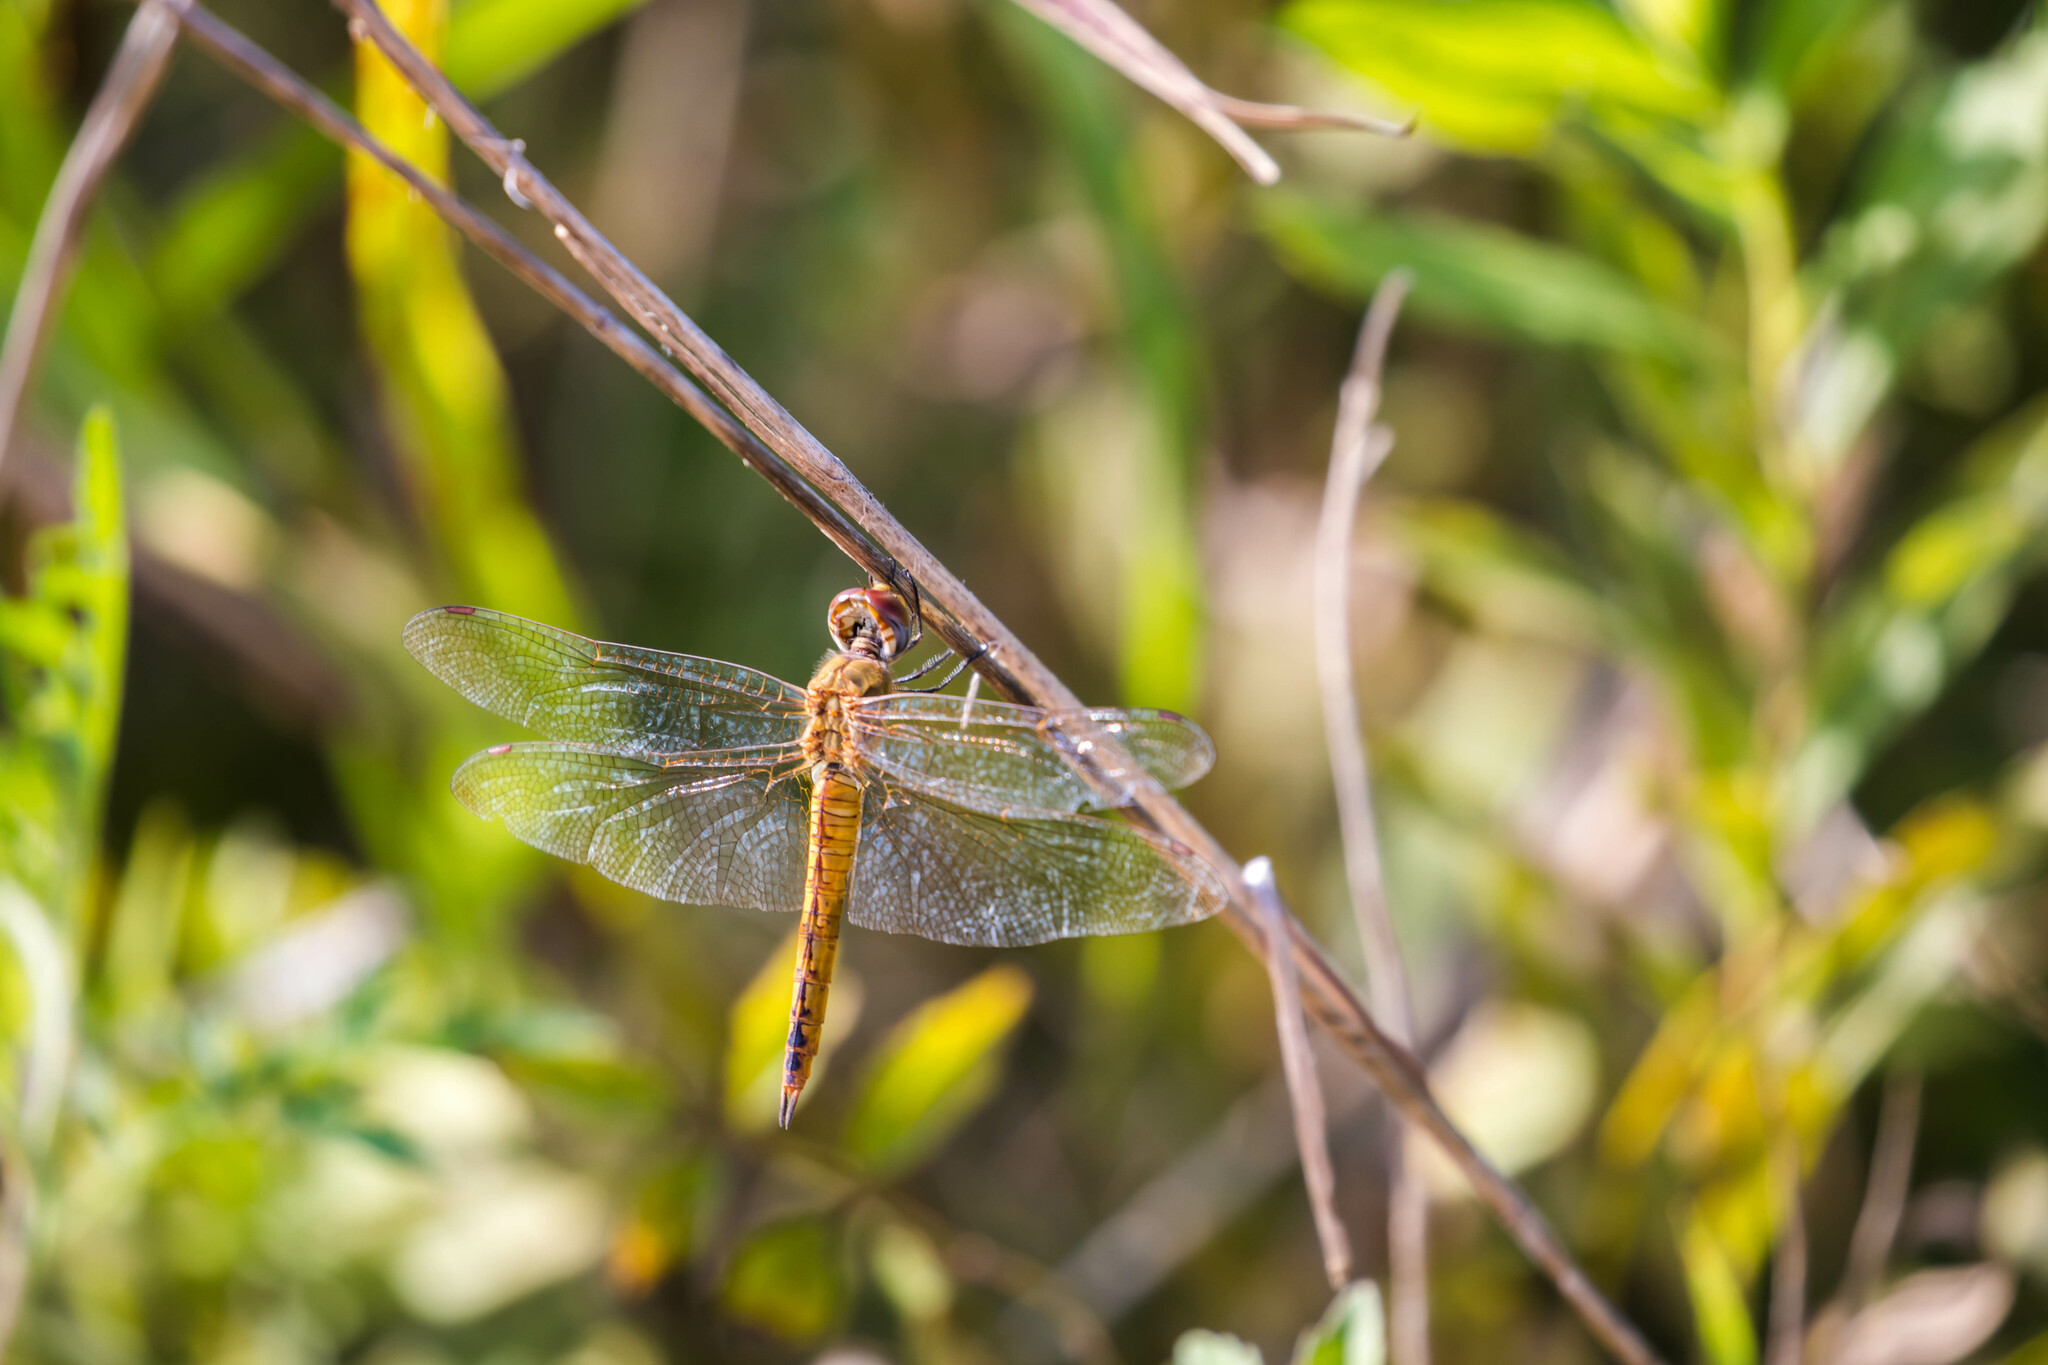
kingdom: Animalia
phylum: Arthropoda
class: Insecta
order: Odonata
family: Libellulidae
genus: Pantala
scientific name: Pantala flavescens
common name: Wandering glider
